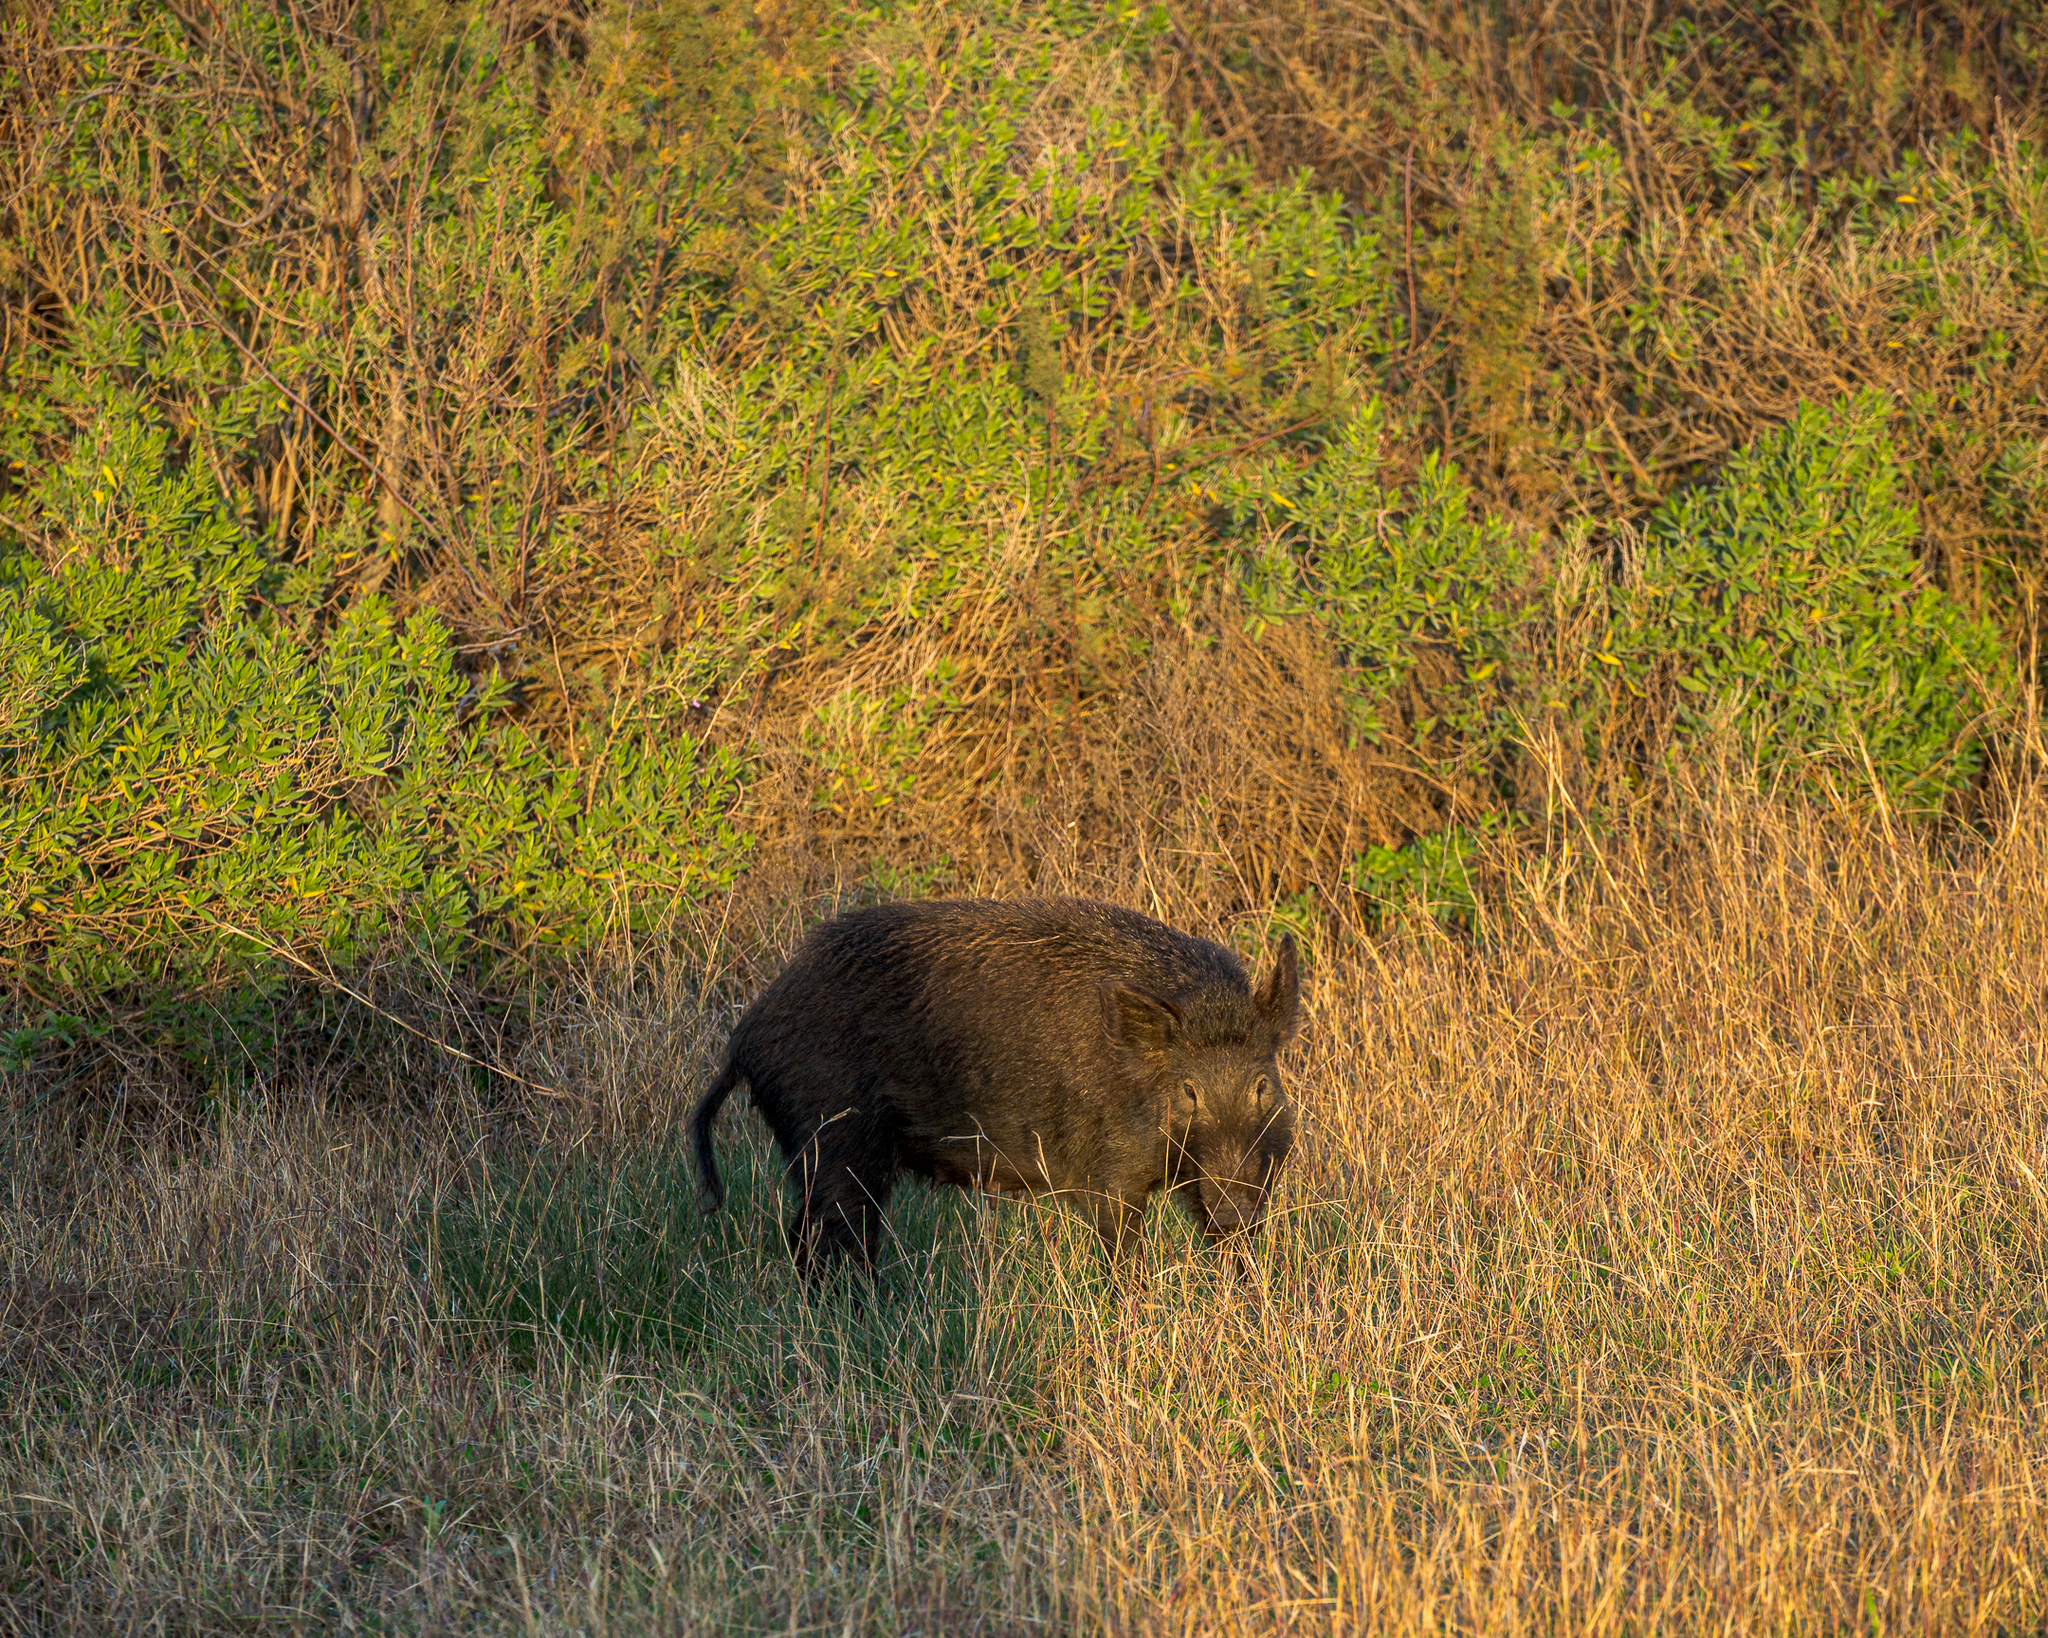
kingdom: Animalia
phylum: Chordata
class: Mammalia
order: Artiodactyla
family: Suidae
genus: Sus
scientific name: Sus scrofa
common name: Wild boar
